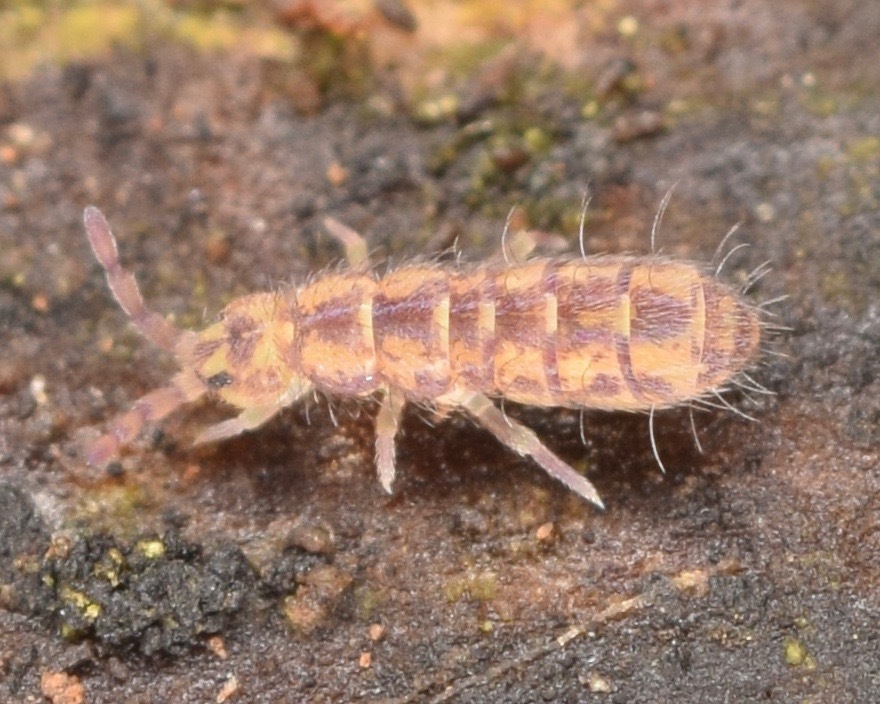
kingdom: Animalia
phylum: Arthropoda
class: Collembola
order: Entomobryomorpha
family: Isotomidae
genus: Isotoma
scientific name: Isotoma delta
